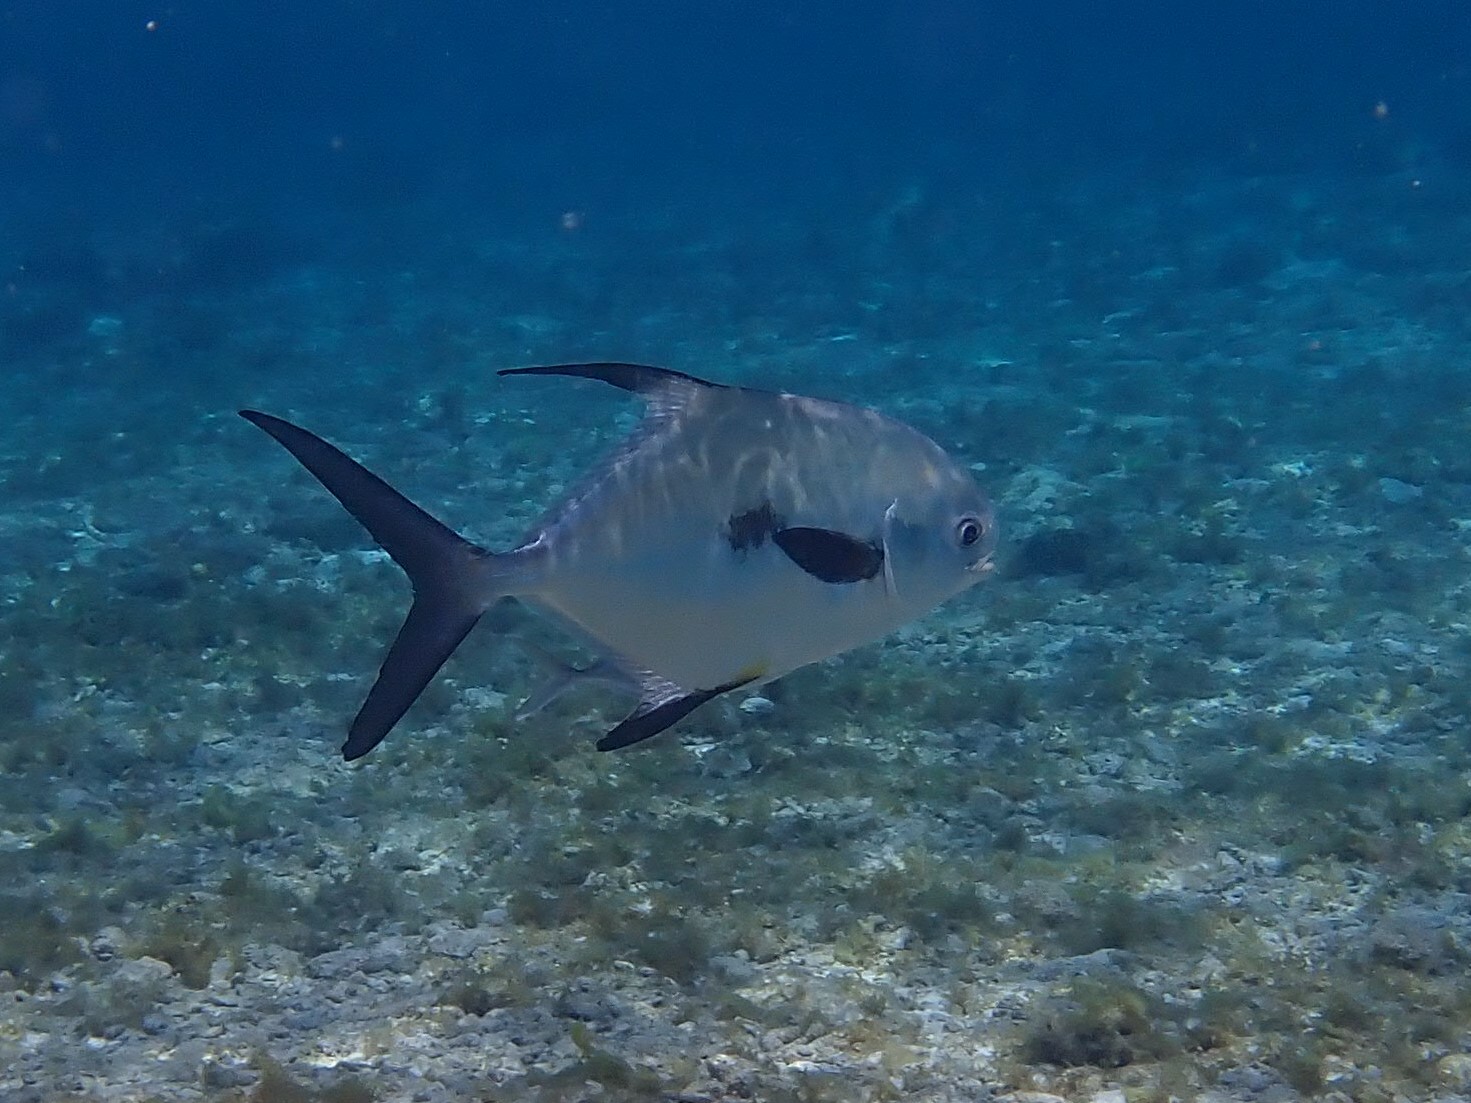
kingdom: Animalia
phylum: Chordata
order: Perciformes
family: Carangidae
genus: Trachinotus
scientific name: Trachinotus falcatus
